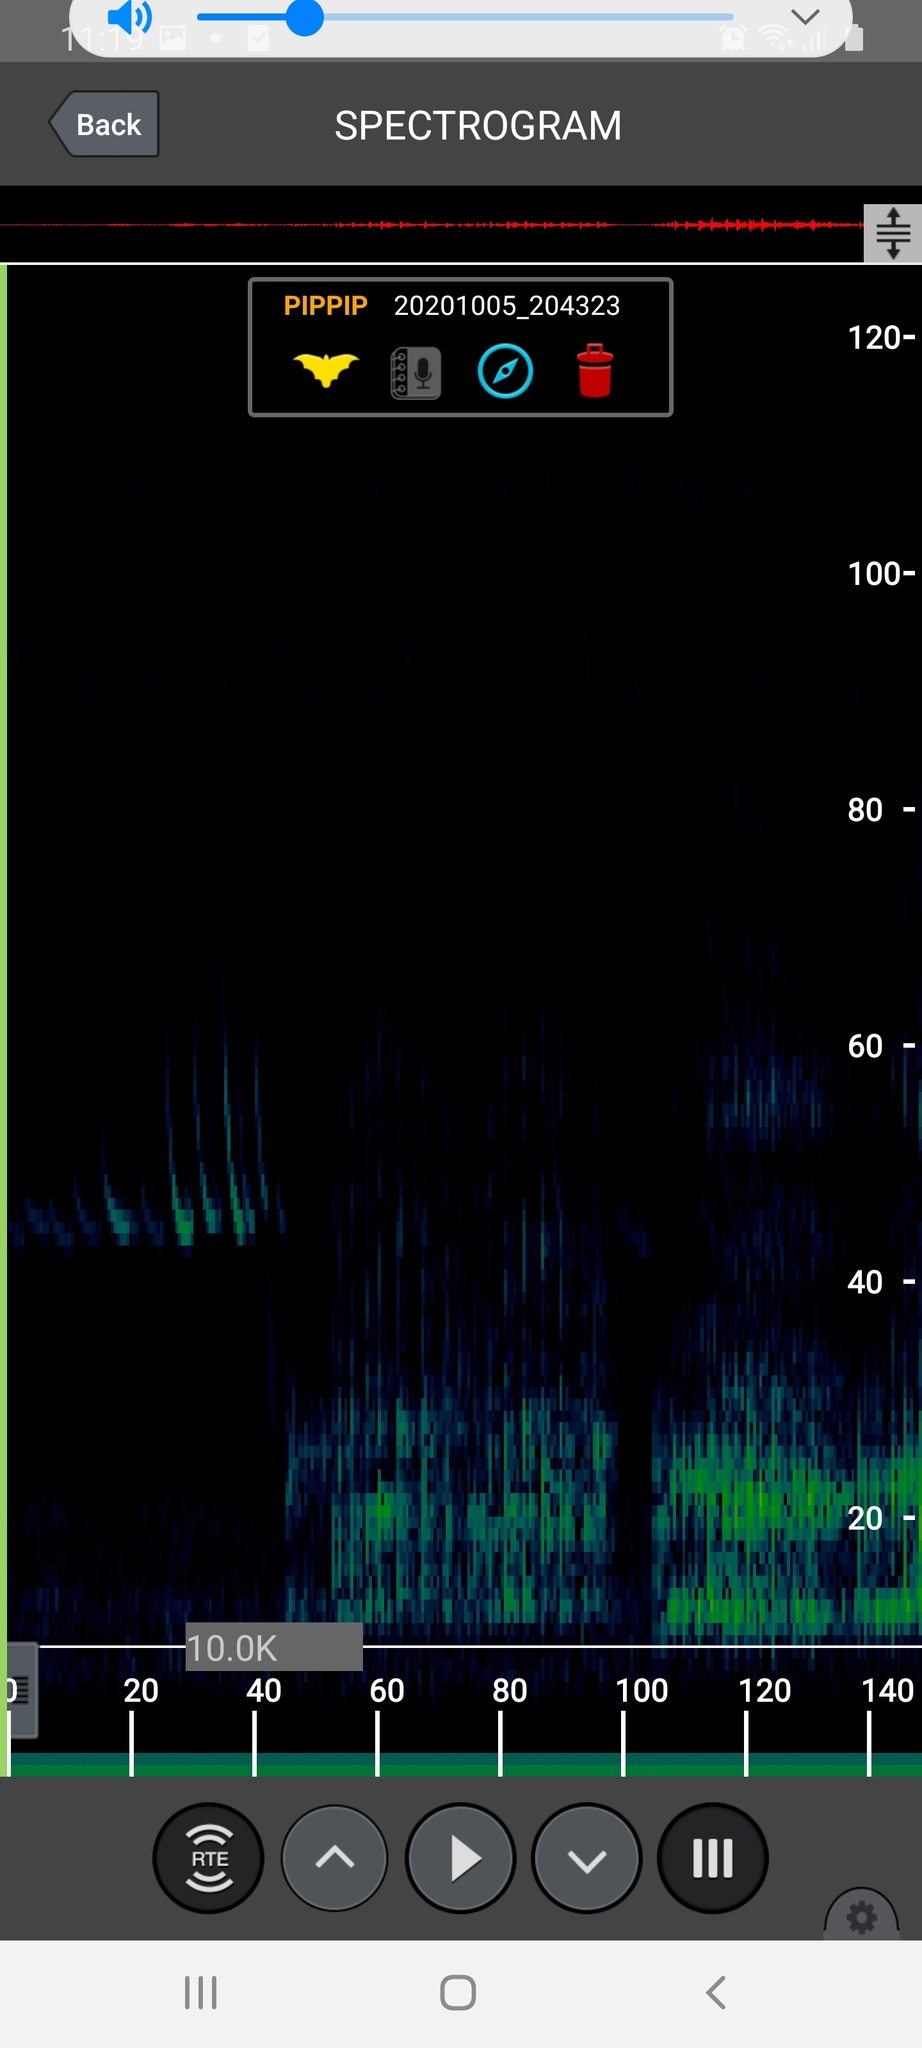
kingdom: Animalia
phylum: Chordata
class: Mammalia
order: Chiroptera
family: Vespertilionidae
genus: Pipistrellus
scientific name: Pipistrellus pipistrellus
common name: Common pipistrelle
